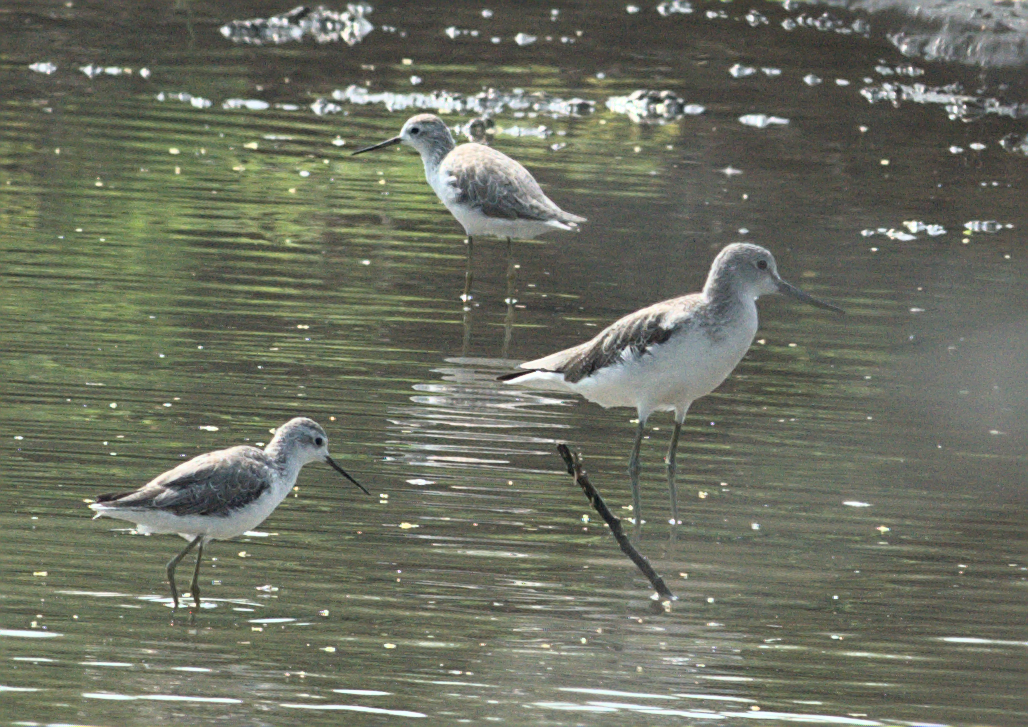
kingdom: Animalia
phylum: Chordata
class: Aves
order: Charadriiformes
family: Scolopacidae
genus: Tringa
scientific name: Tringa stagnatilis
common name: Marsh sandpiper
